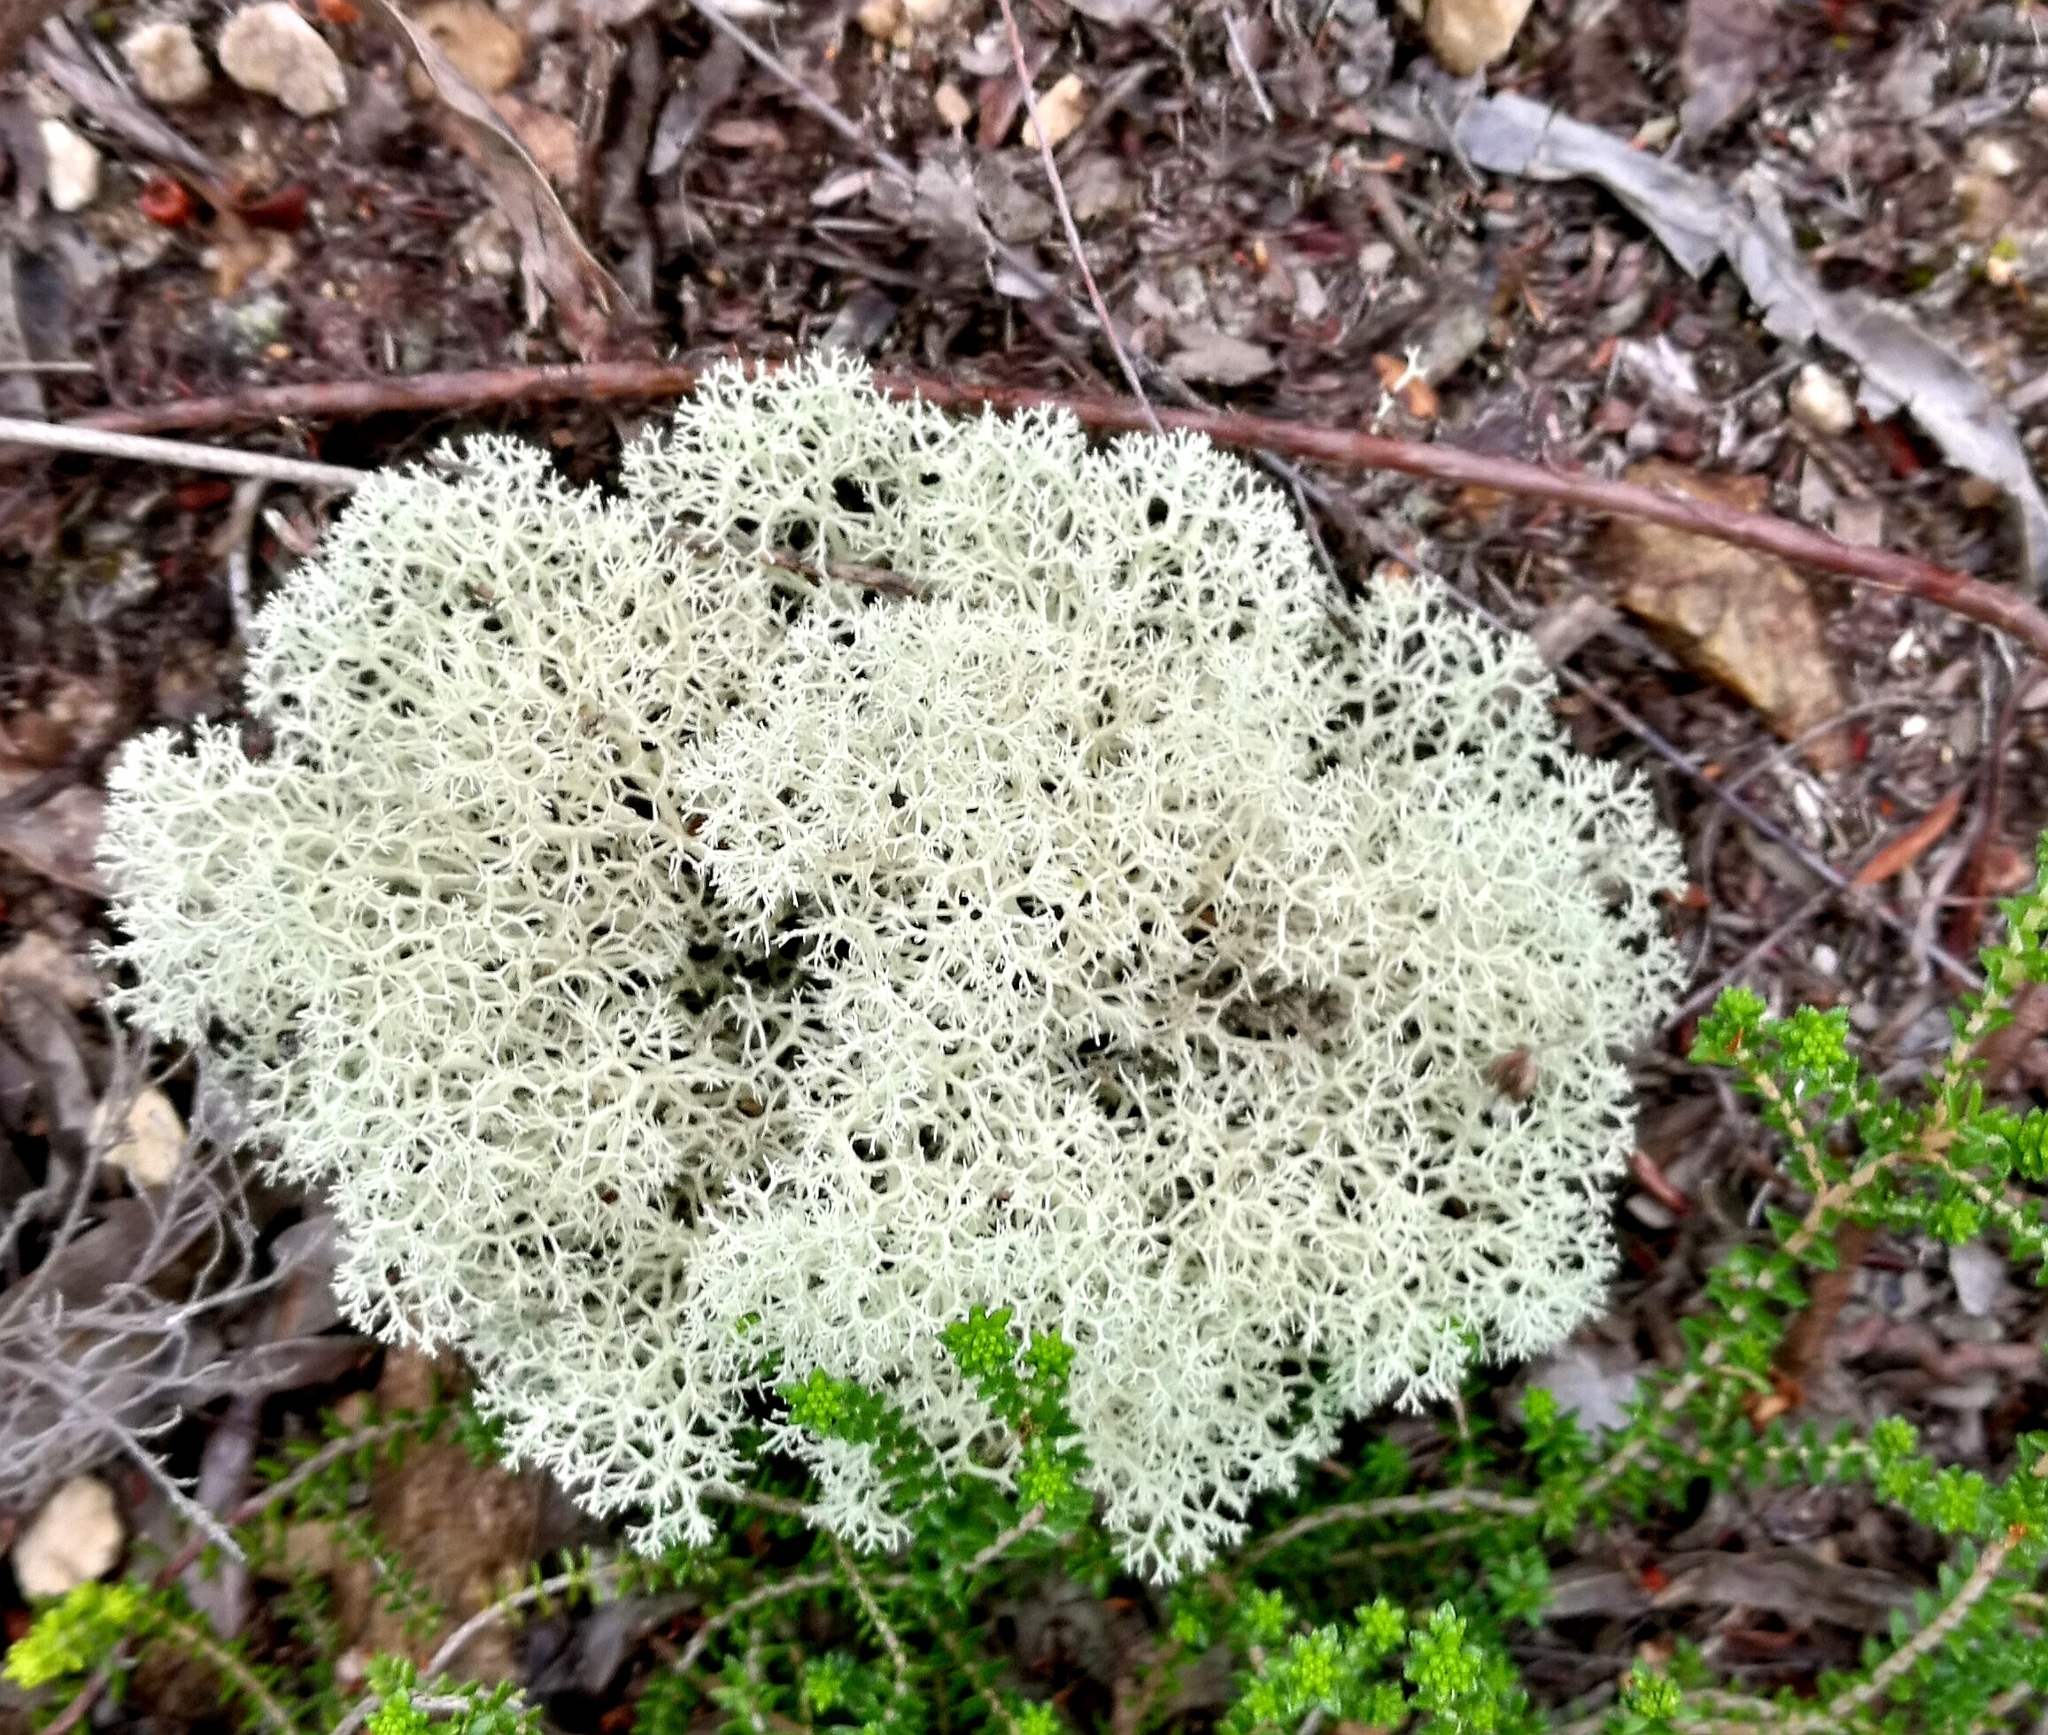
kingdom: Fungi
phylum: Ascomycota
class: Lecanoromycetes
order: Lecanorales
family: Cladoniaceae
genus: Cladonia
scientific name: Cladonia confusa
